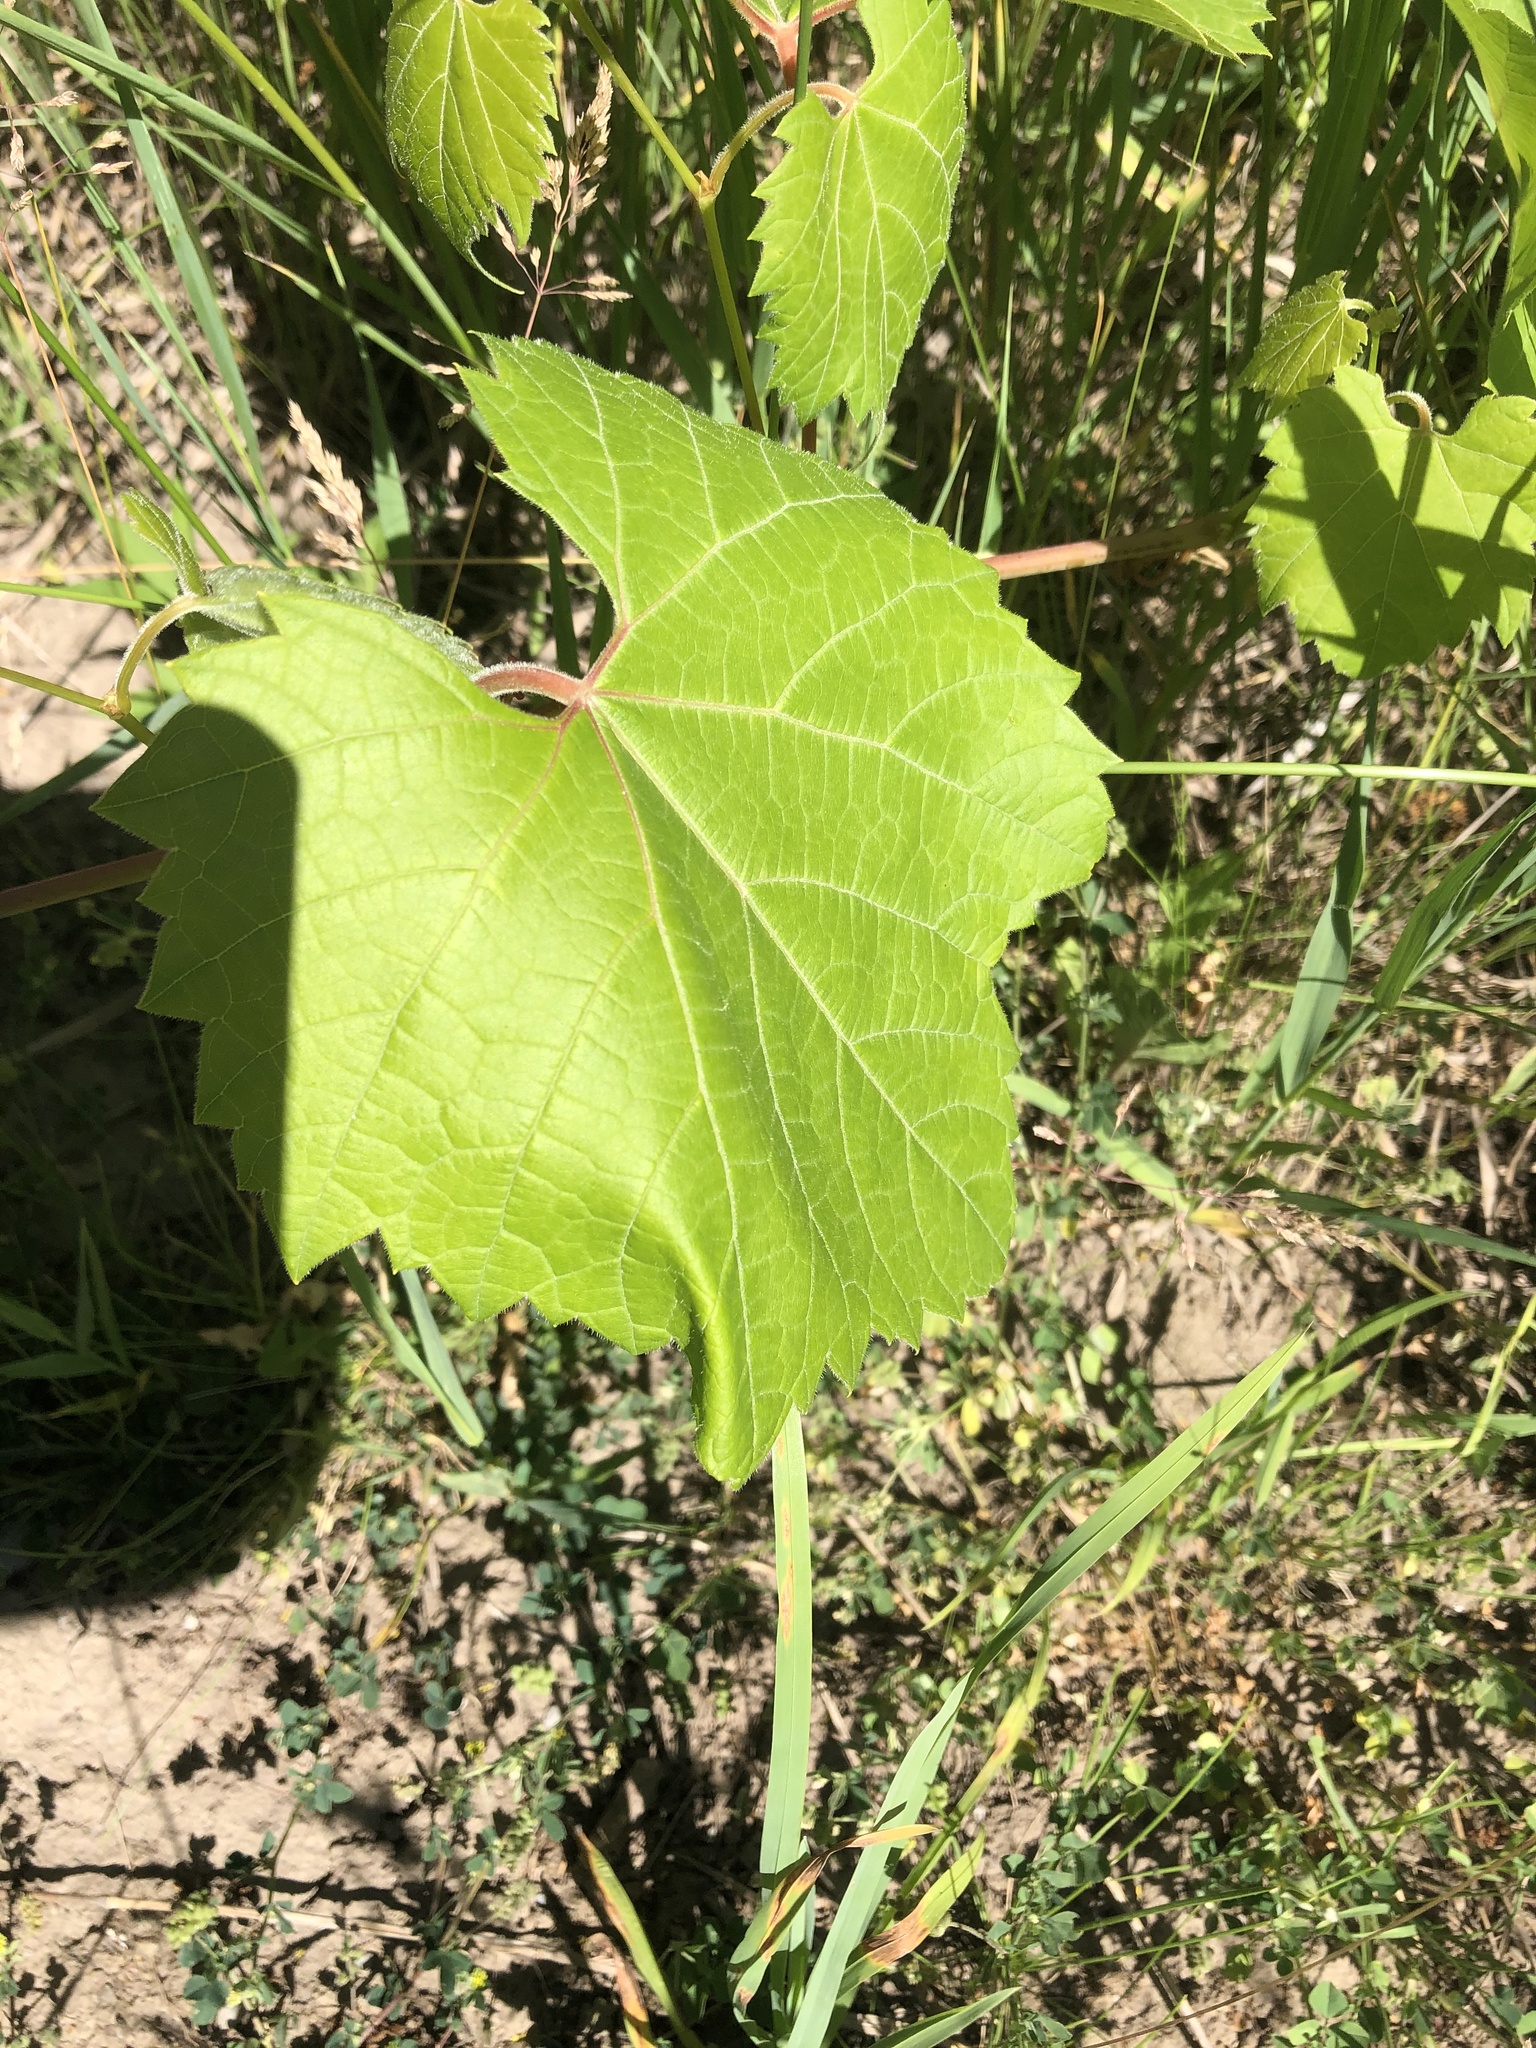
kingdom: Plantae
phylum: Tracheophyta
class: Magnoliopsida
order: Vitales
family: Vitaceae
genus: Vitis
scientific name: Vitis riparia
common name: Frost grape
